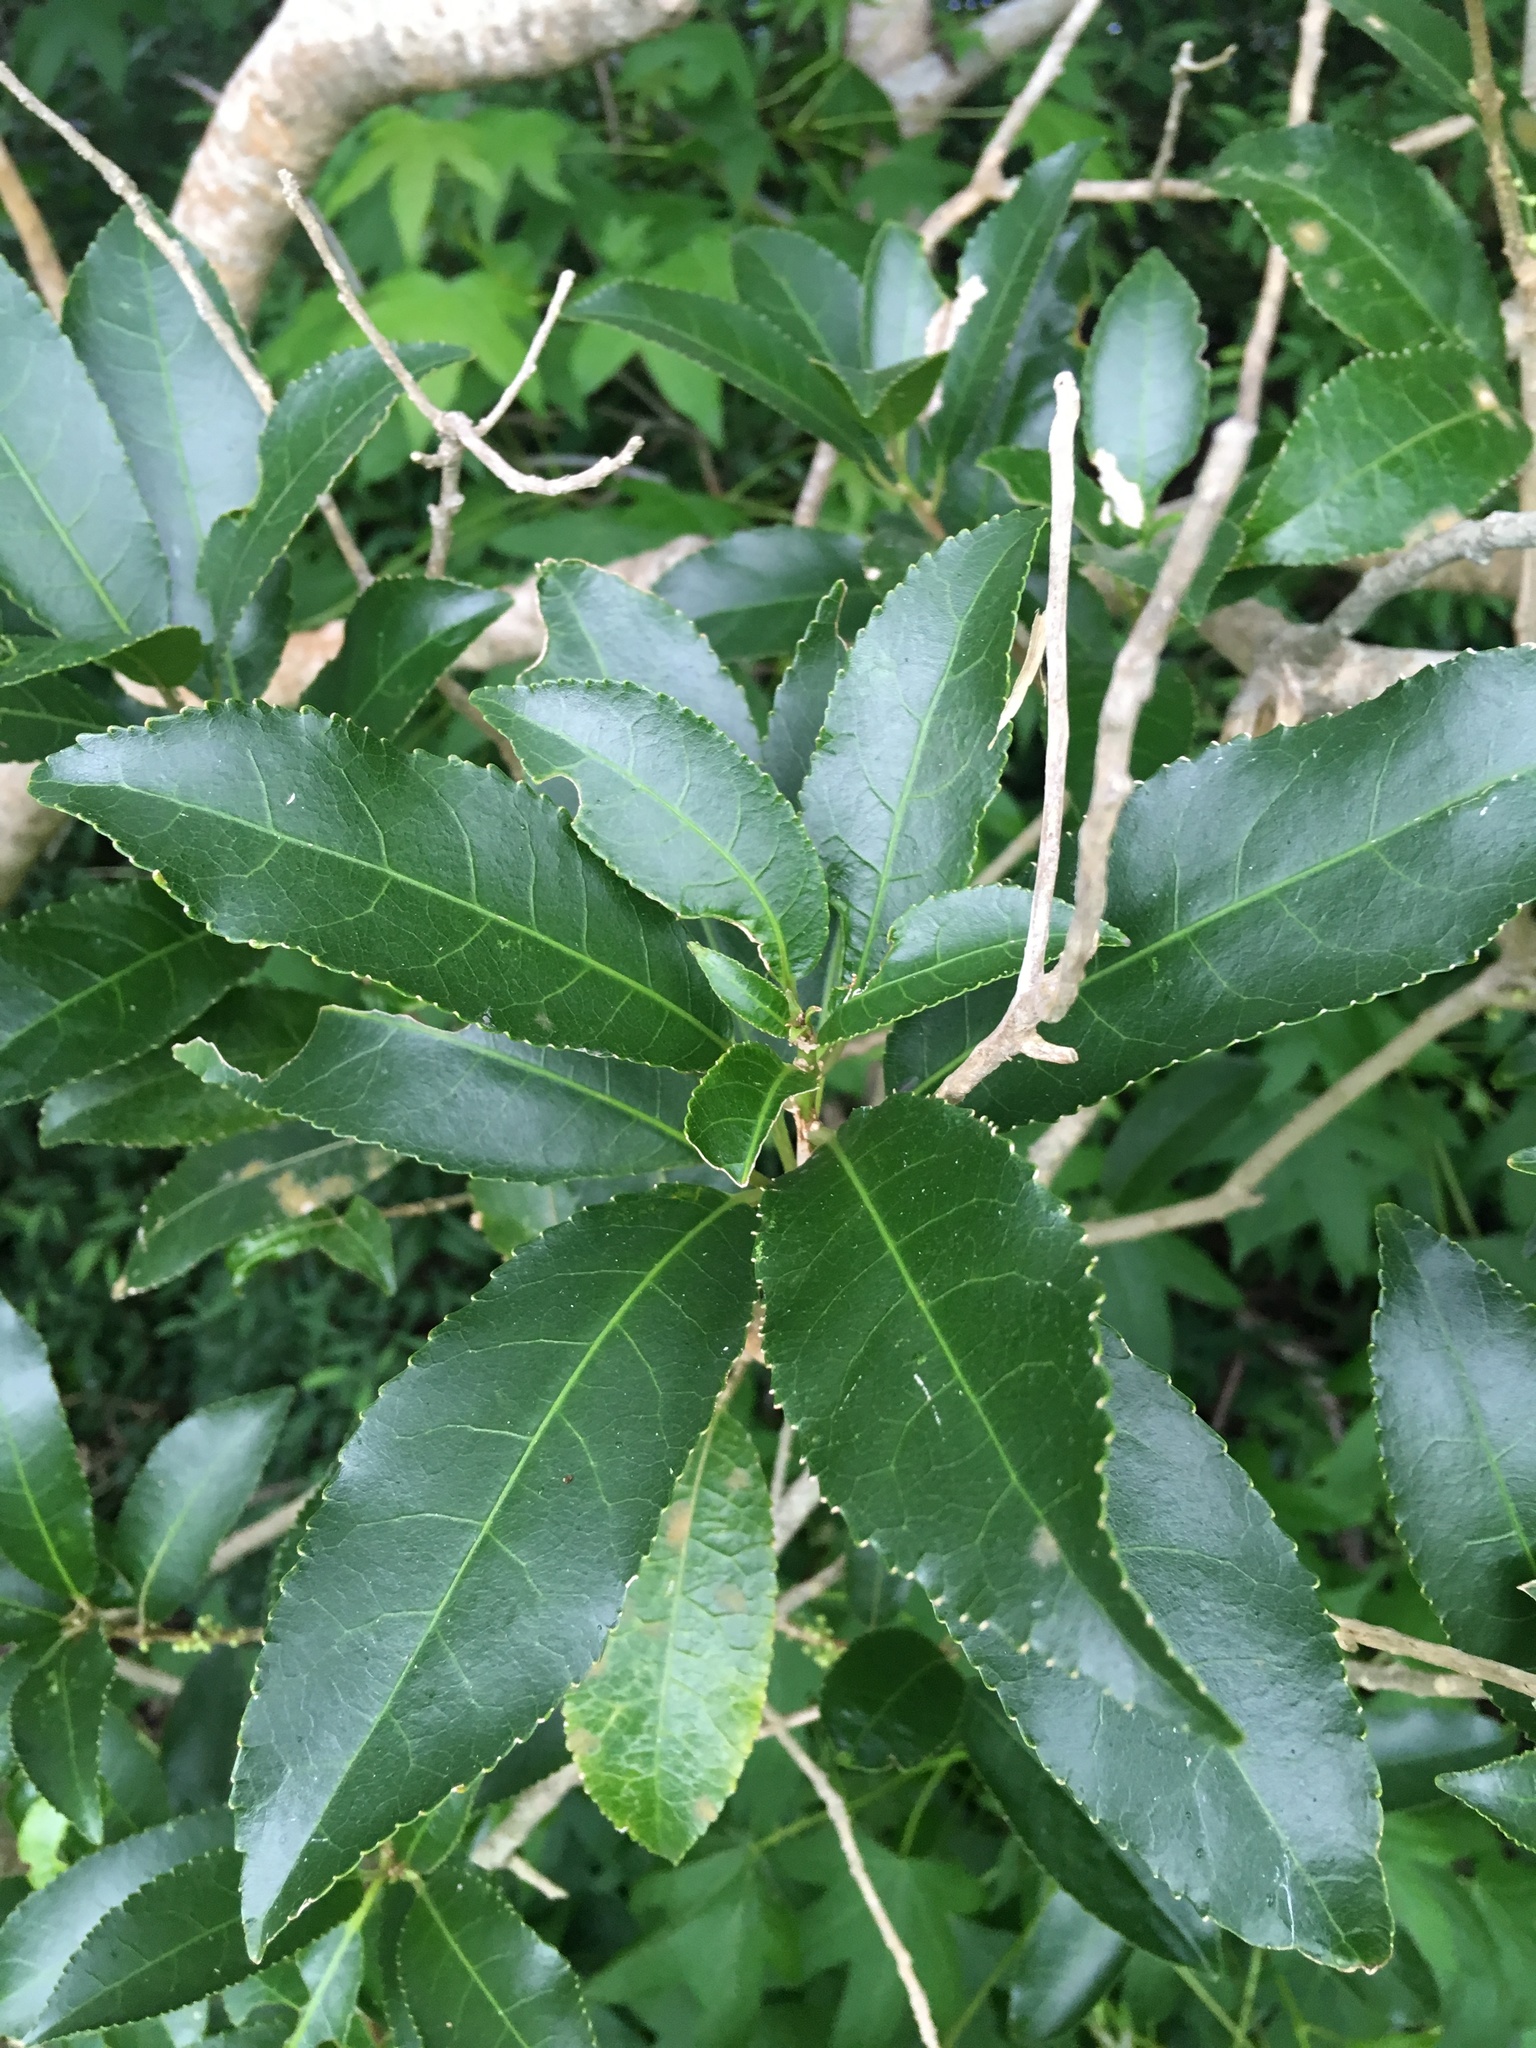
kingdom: Plantae
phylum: Chlorophyta
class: Ulvophyceae
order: Trentepohliales
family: Trentepohliaceae
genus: Cephaleuros
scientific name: Cephaleuros
